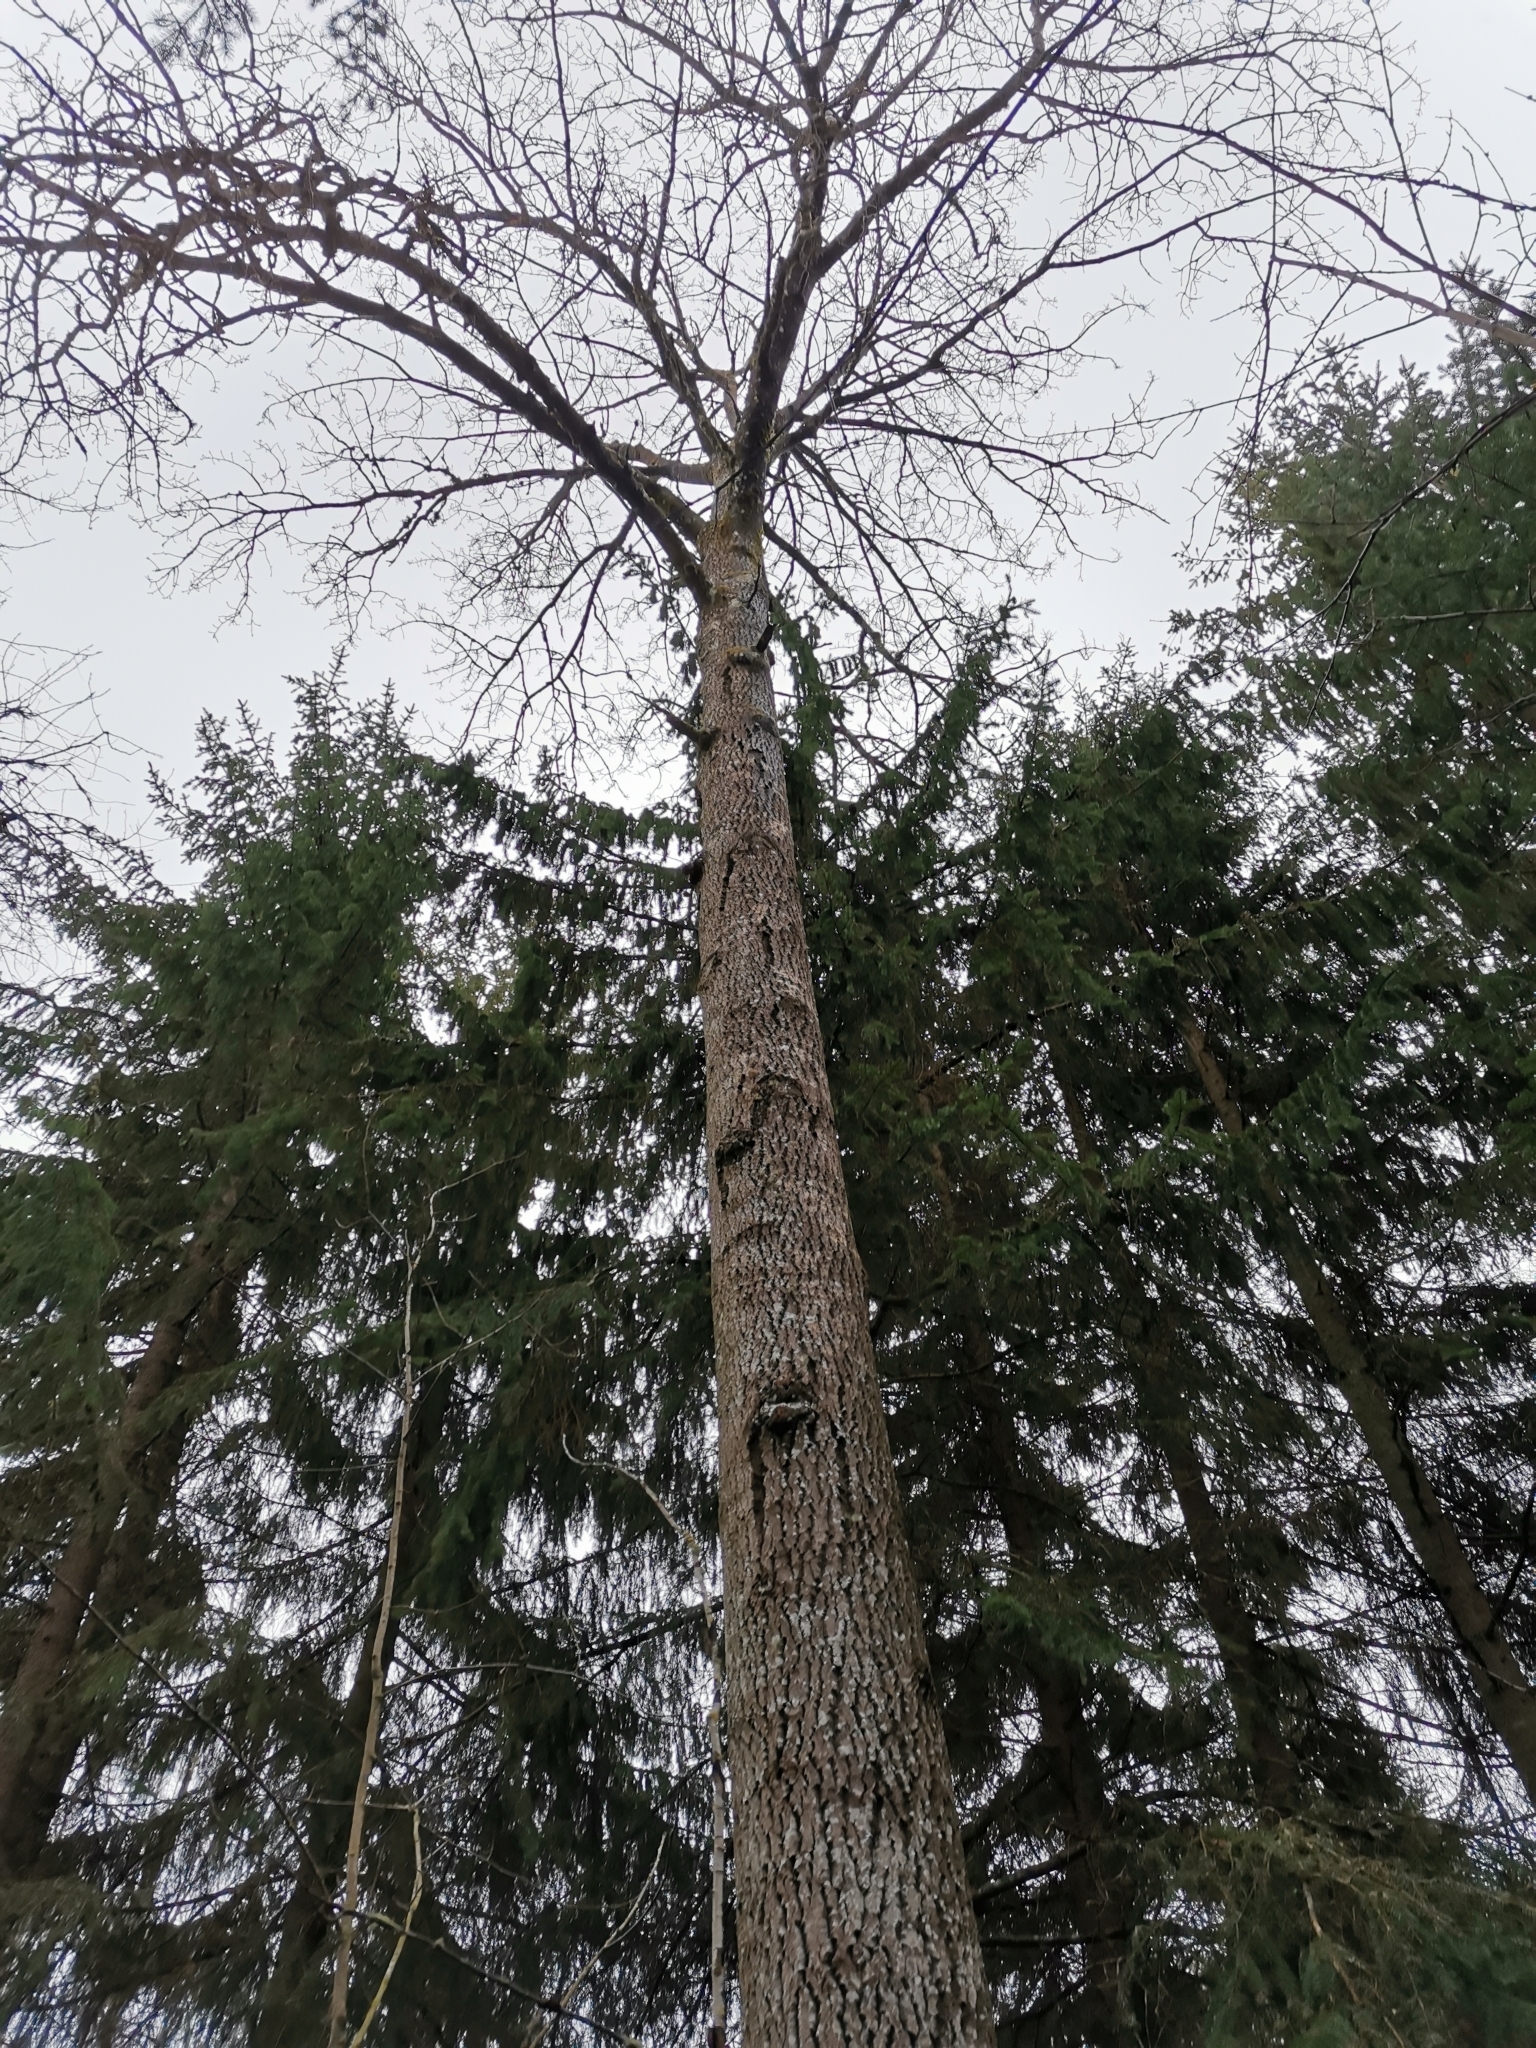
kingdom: Animalia
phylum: Chordata
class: Mammalia
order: Rodentia
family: Sciuridae
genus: Pteromys
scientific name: Pteromys volans
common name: Siberian flying squirrel
